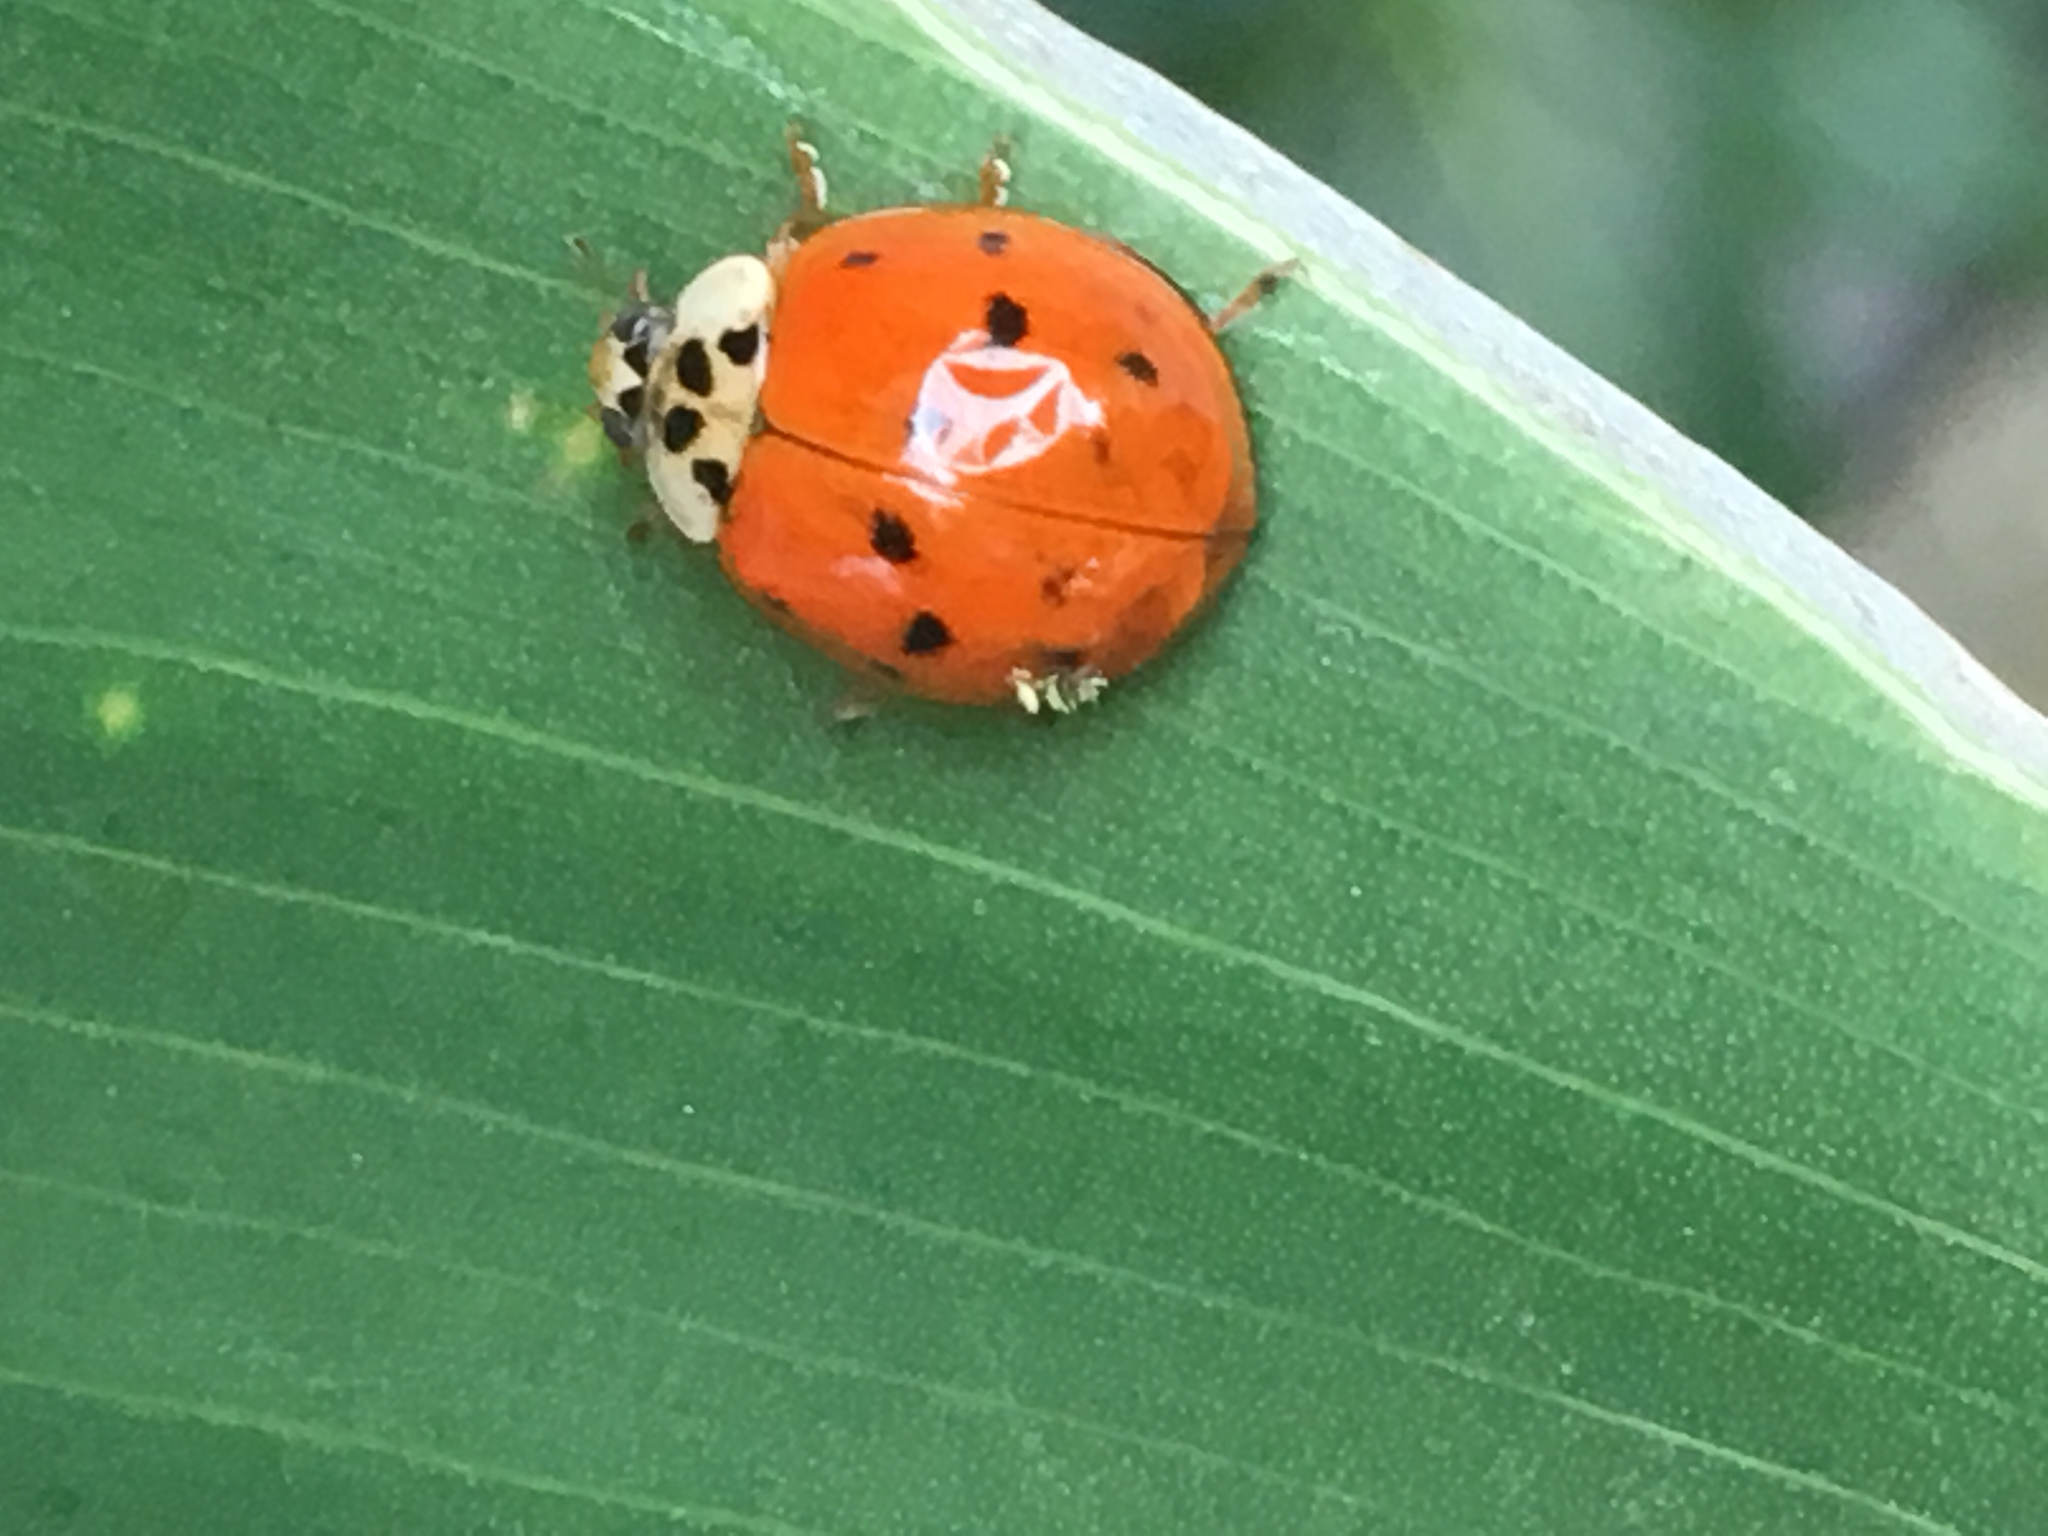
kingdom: Animalia
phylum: Arthropoda
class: Insecta
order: Coleoptera
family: Coccinellidae
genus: Harmonia
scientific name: Harmonia axyridis
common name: Harlequin ladybird
